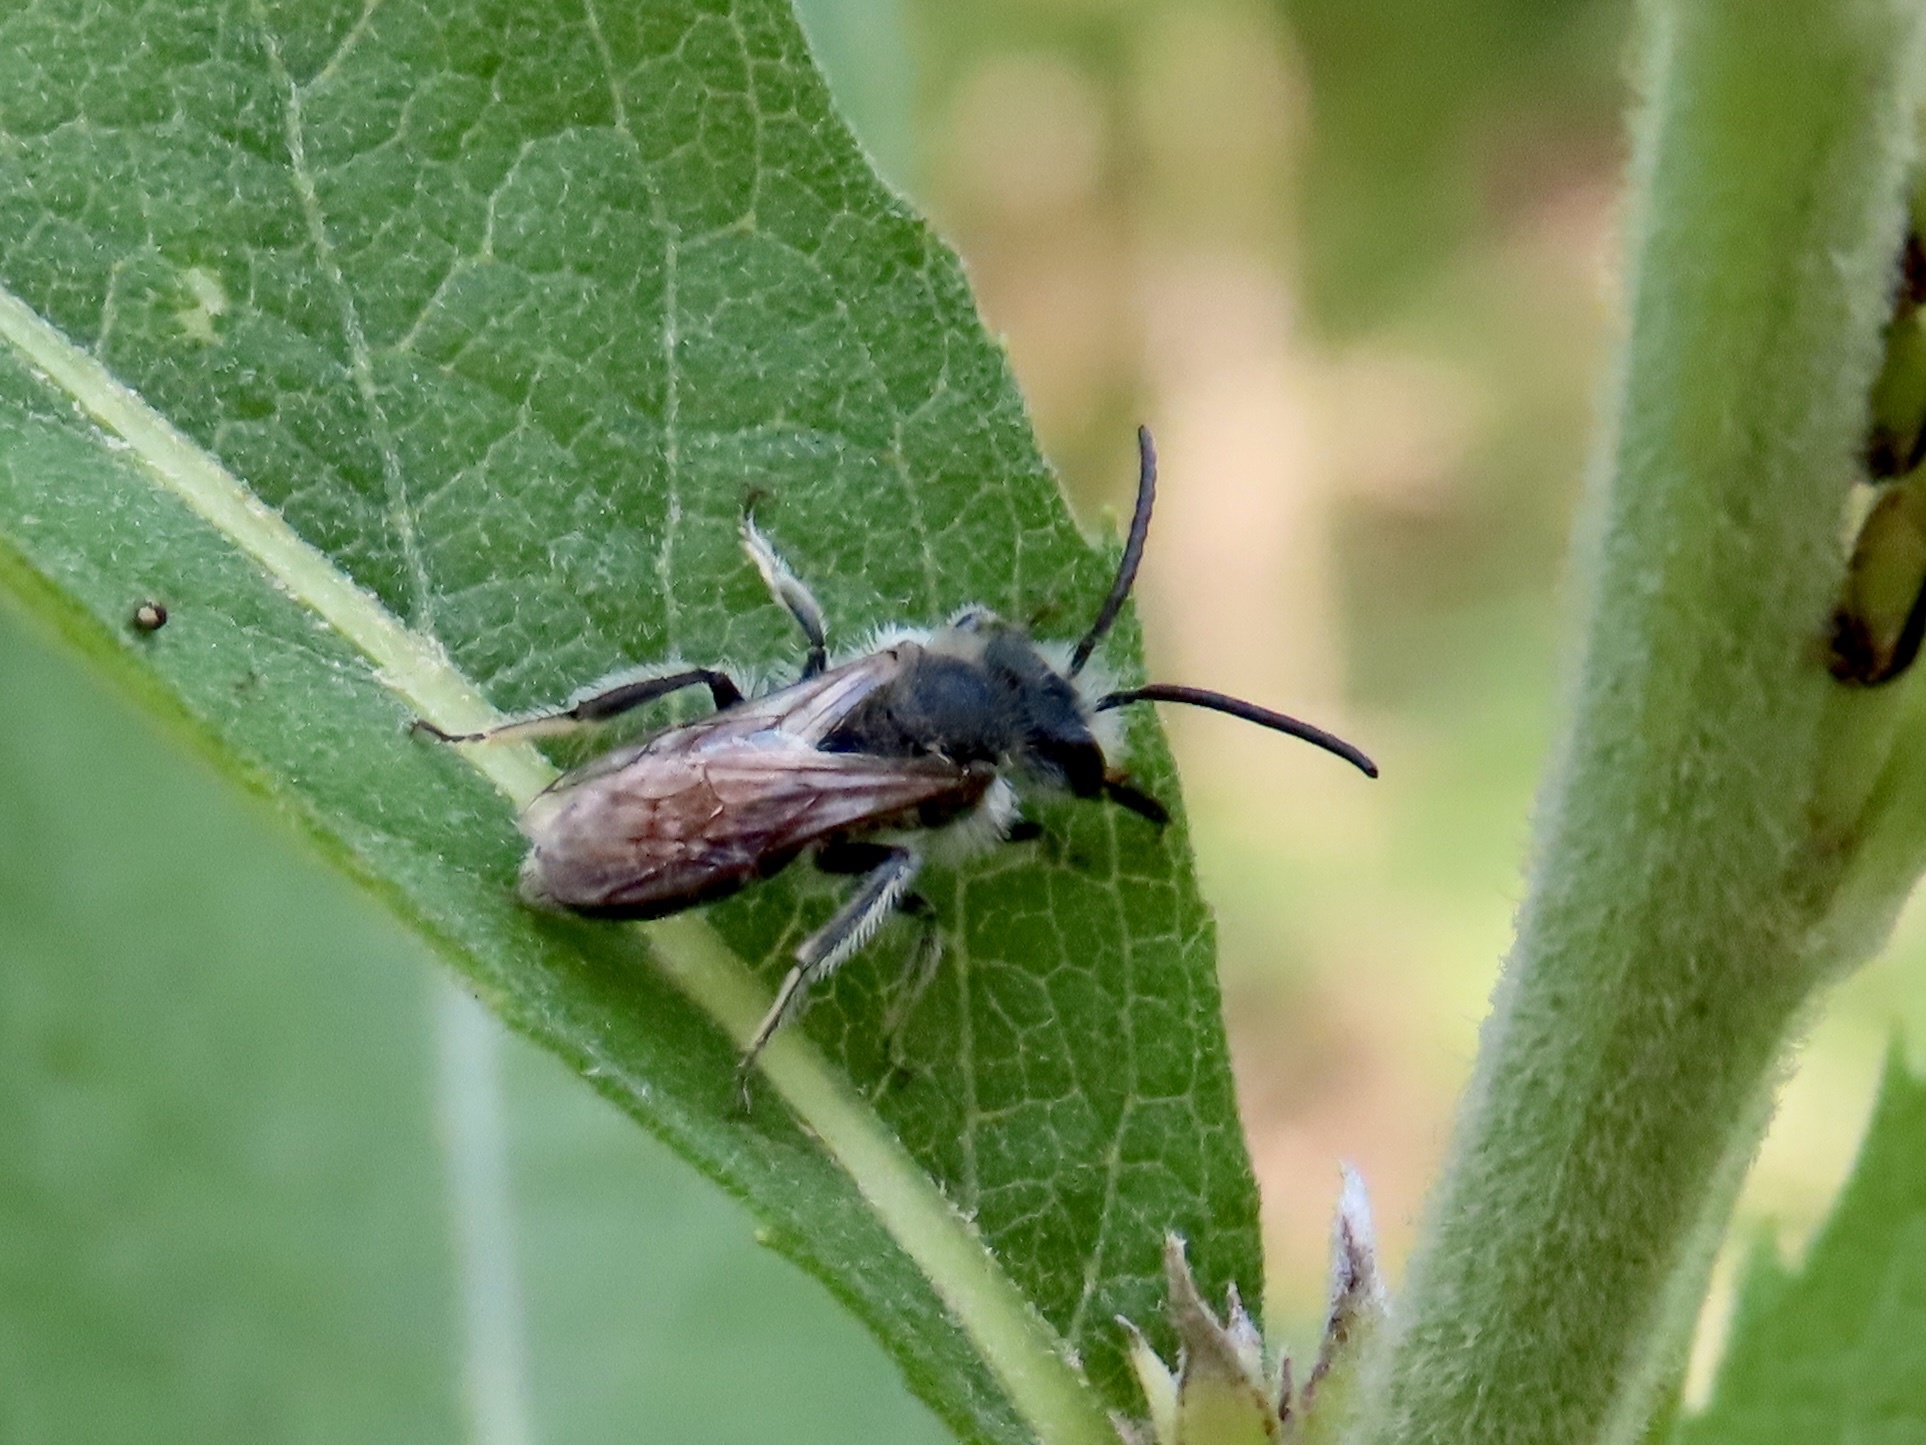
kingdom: Animalia
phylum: Arthropoda
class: Insecta
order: Hymenoptera
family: Andrenidae
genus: Andrena
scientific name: Andrena wilkella
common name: Wilke's mining bee
